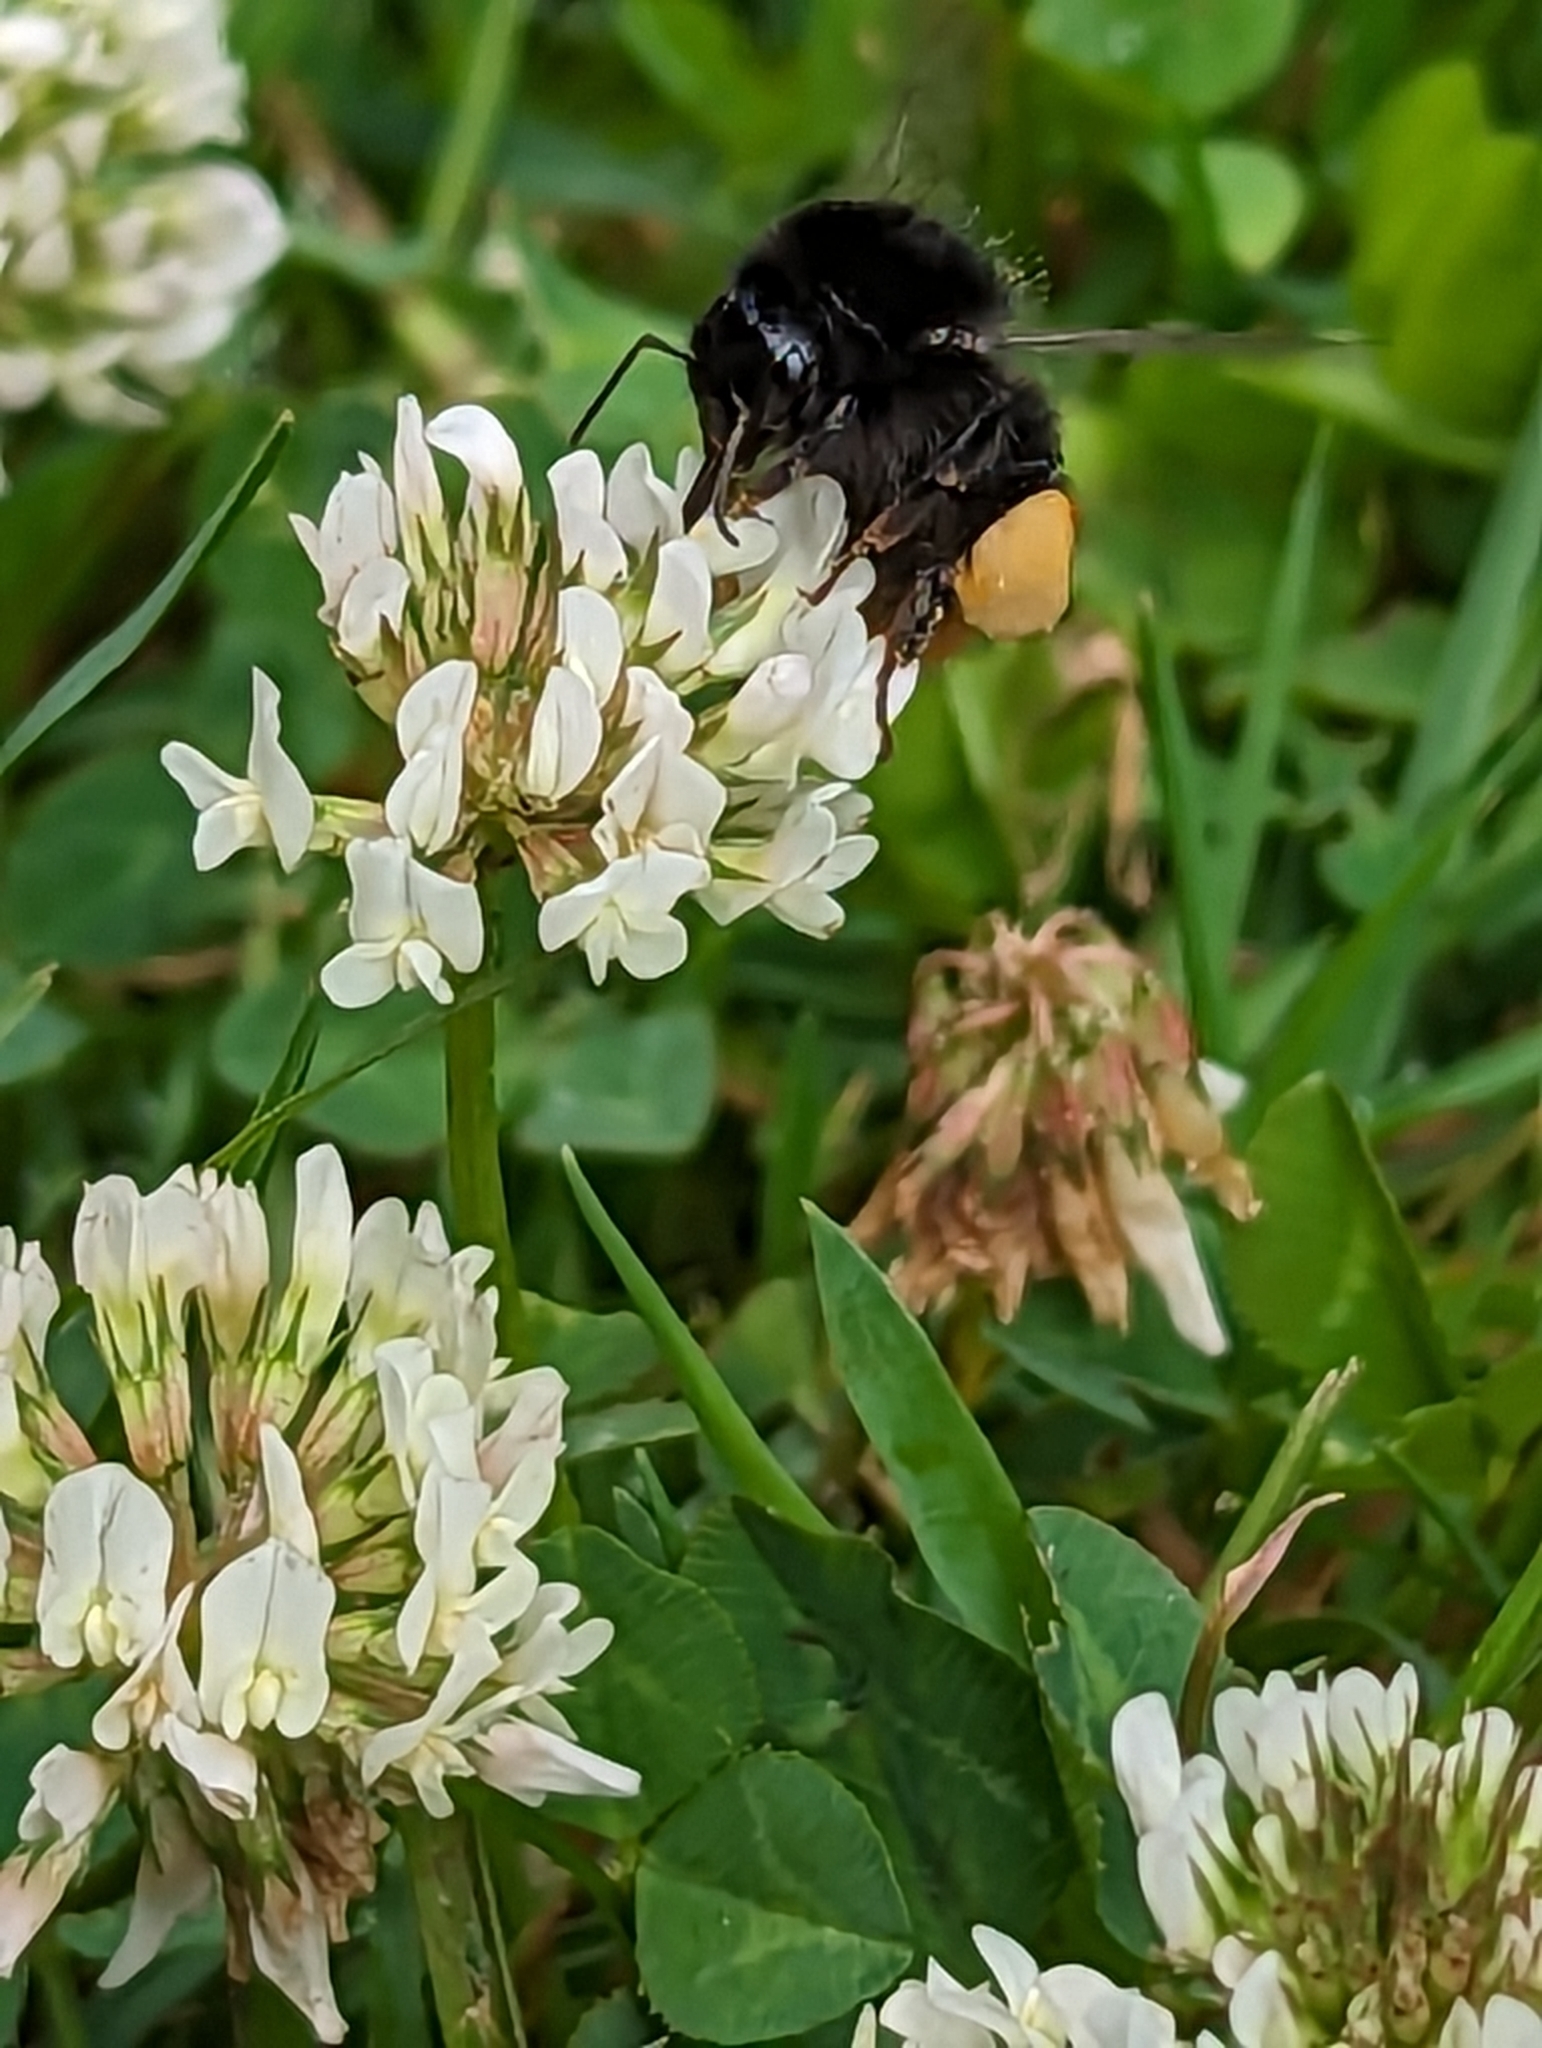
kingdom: Animalia
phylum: Arthropoda
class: Insecta
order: Hymenoptera
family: Apidae
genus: Bombus
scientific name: Bombus lapidarius
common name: Large red-tailed humble-bee
